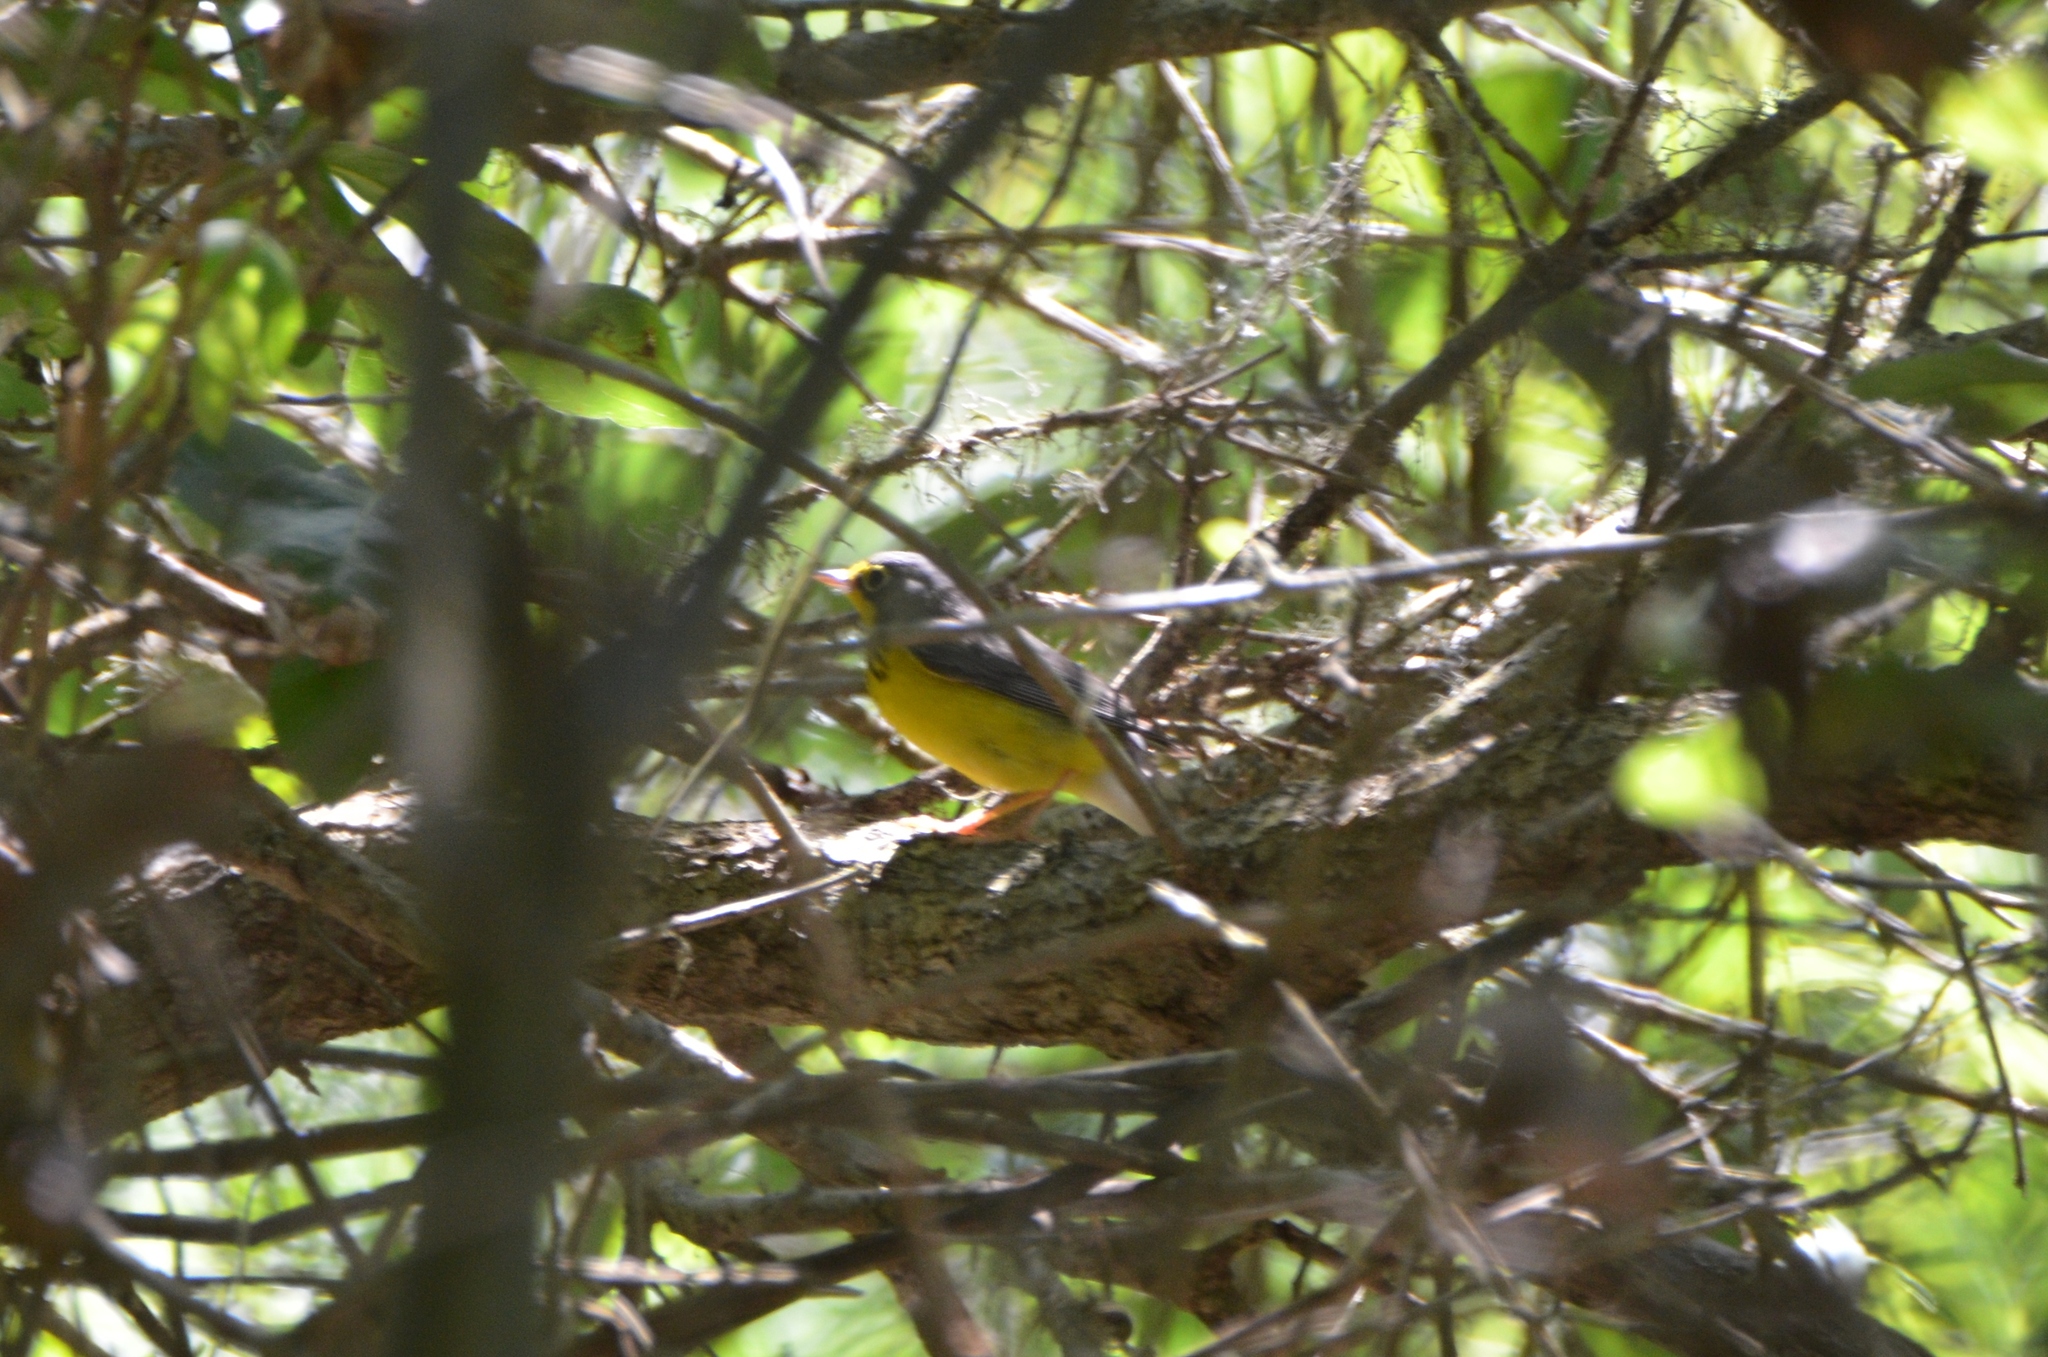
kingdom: Animalia
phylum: Chordata
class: Aves
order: Passeriformes
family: Parulidae
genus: Cardellina
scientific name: Cardellina canadensis
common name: Canada warbler
